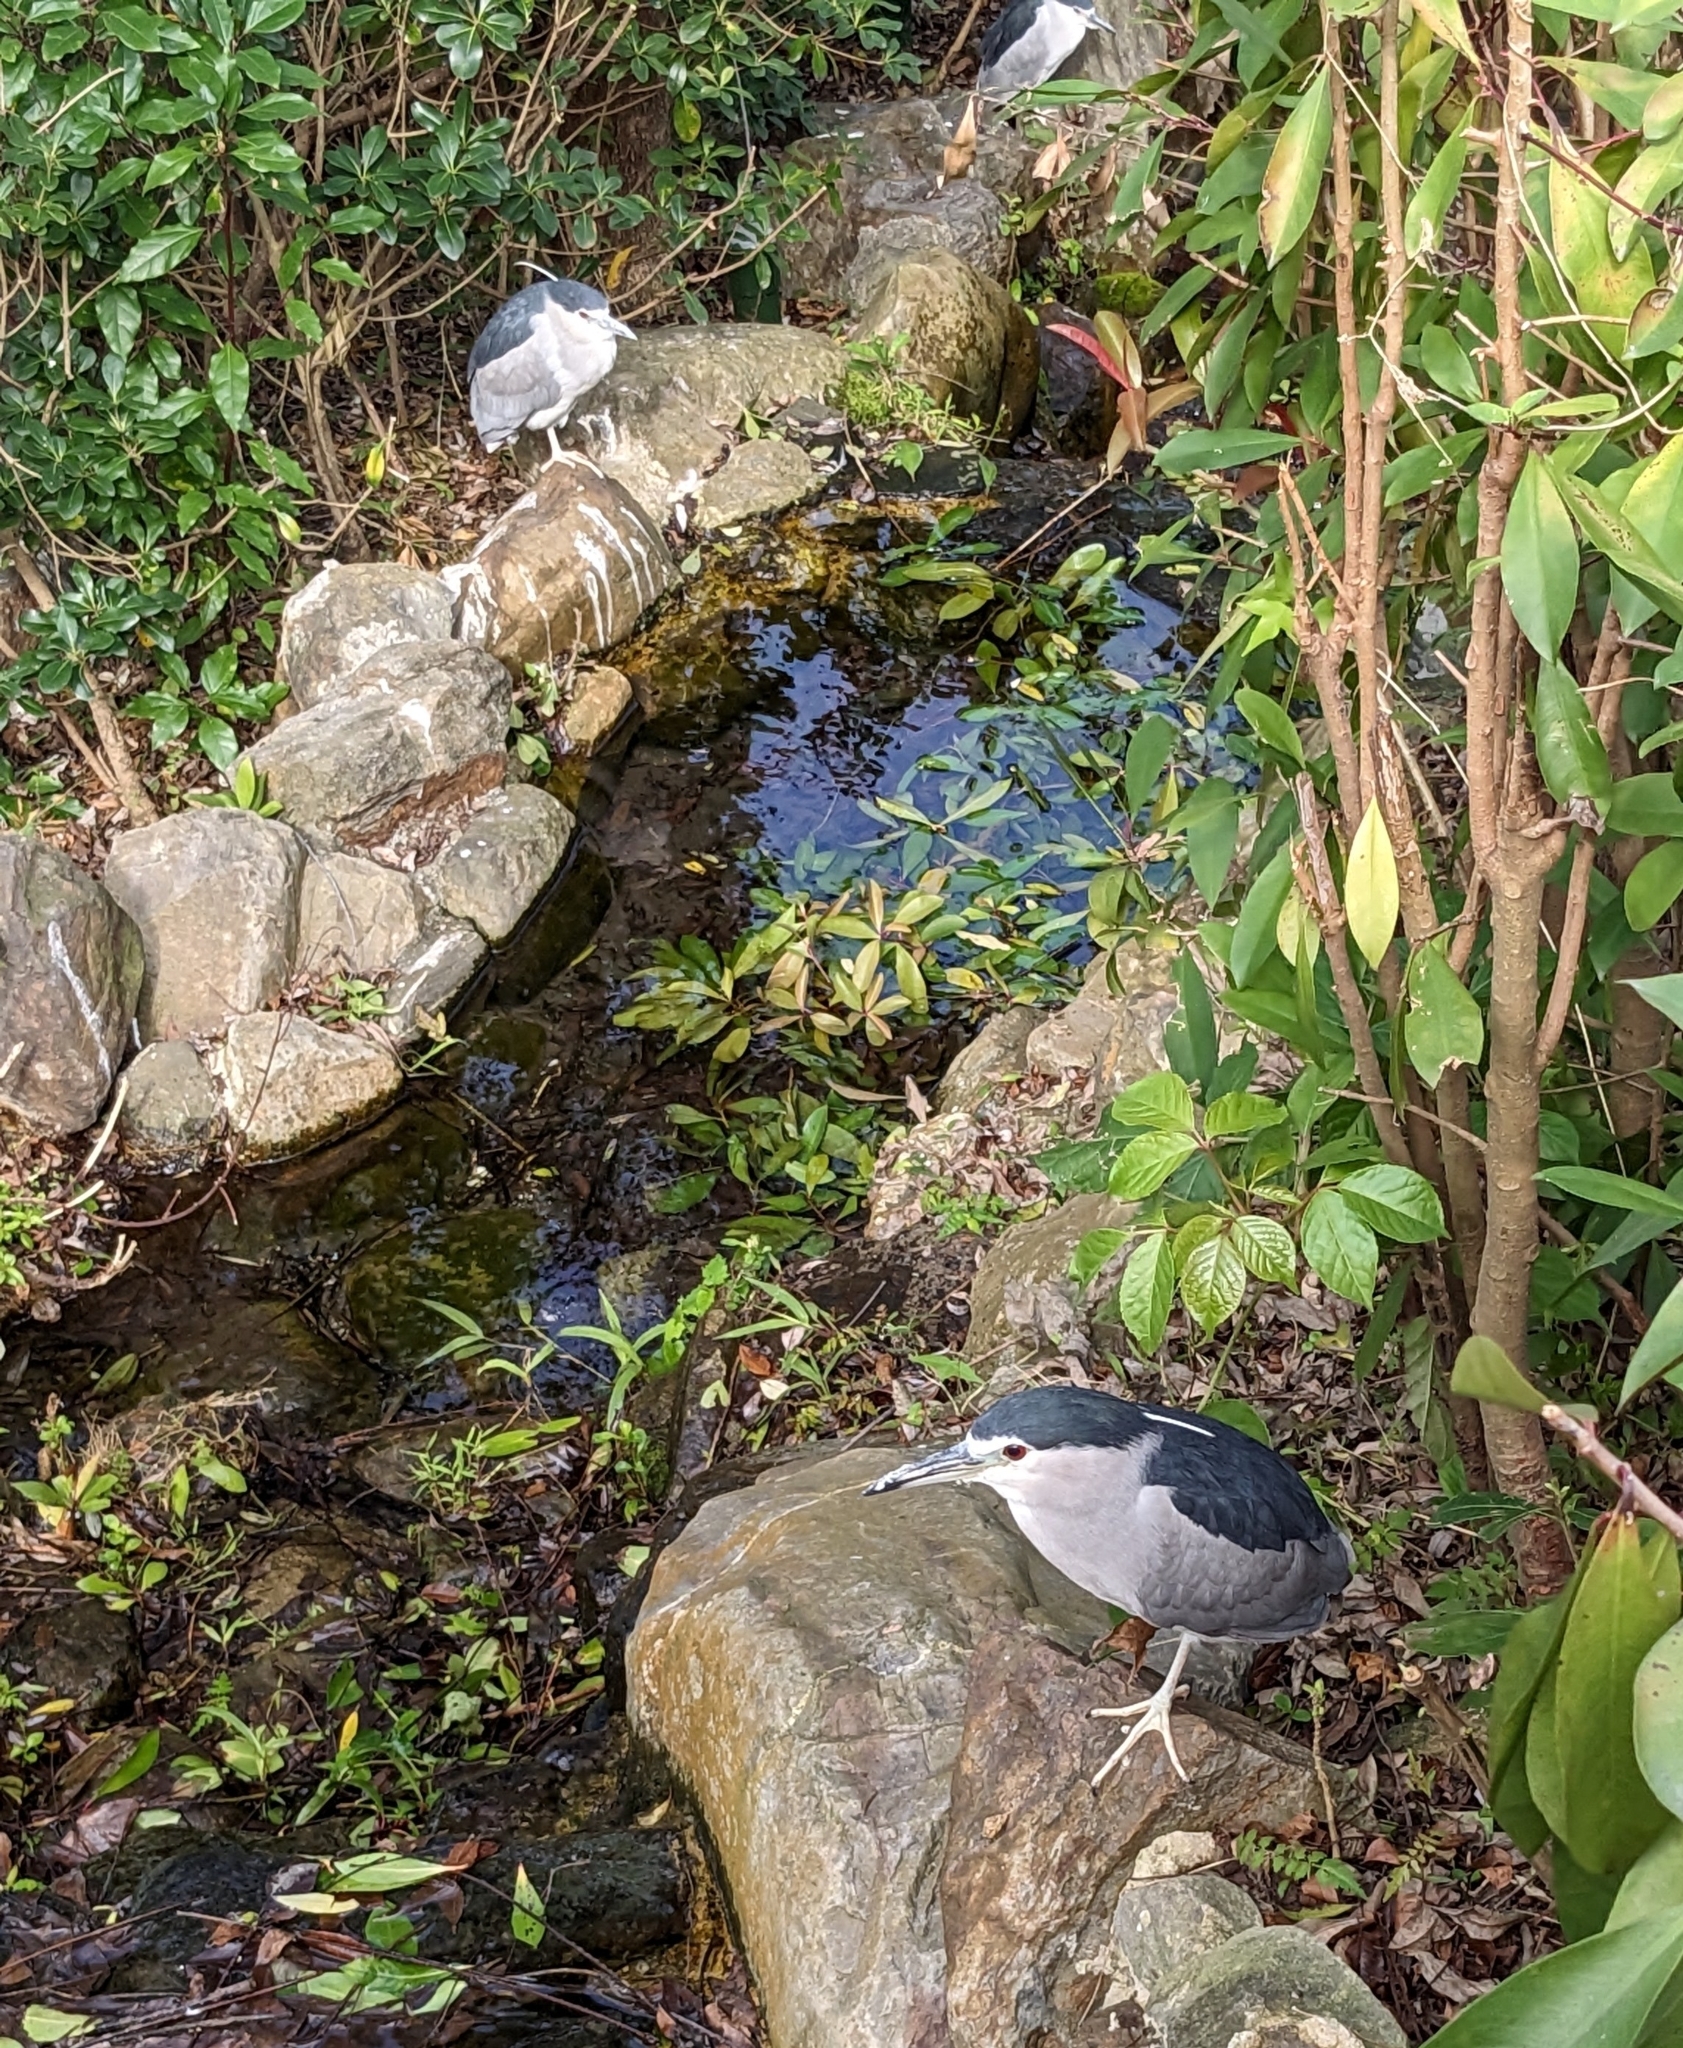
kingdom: Animalia
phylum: Chordata
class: Aves
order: Pelecaniformes
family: Ardeidae
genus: Nycticorax
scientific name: Nycticorax nycticorax
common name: Black-crowned night heron
